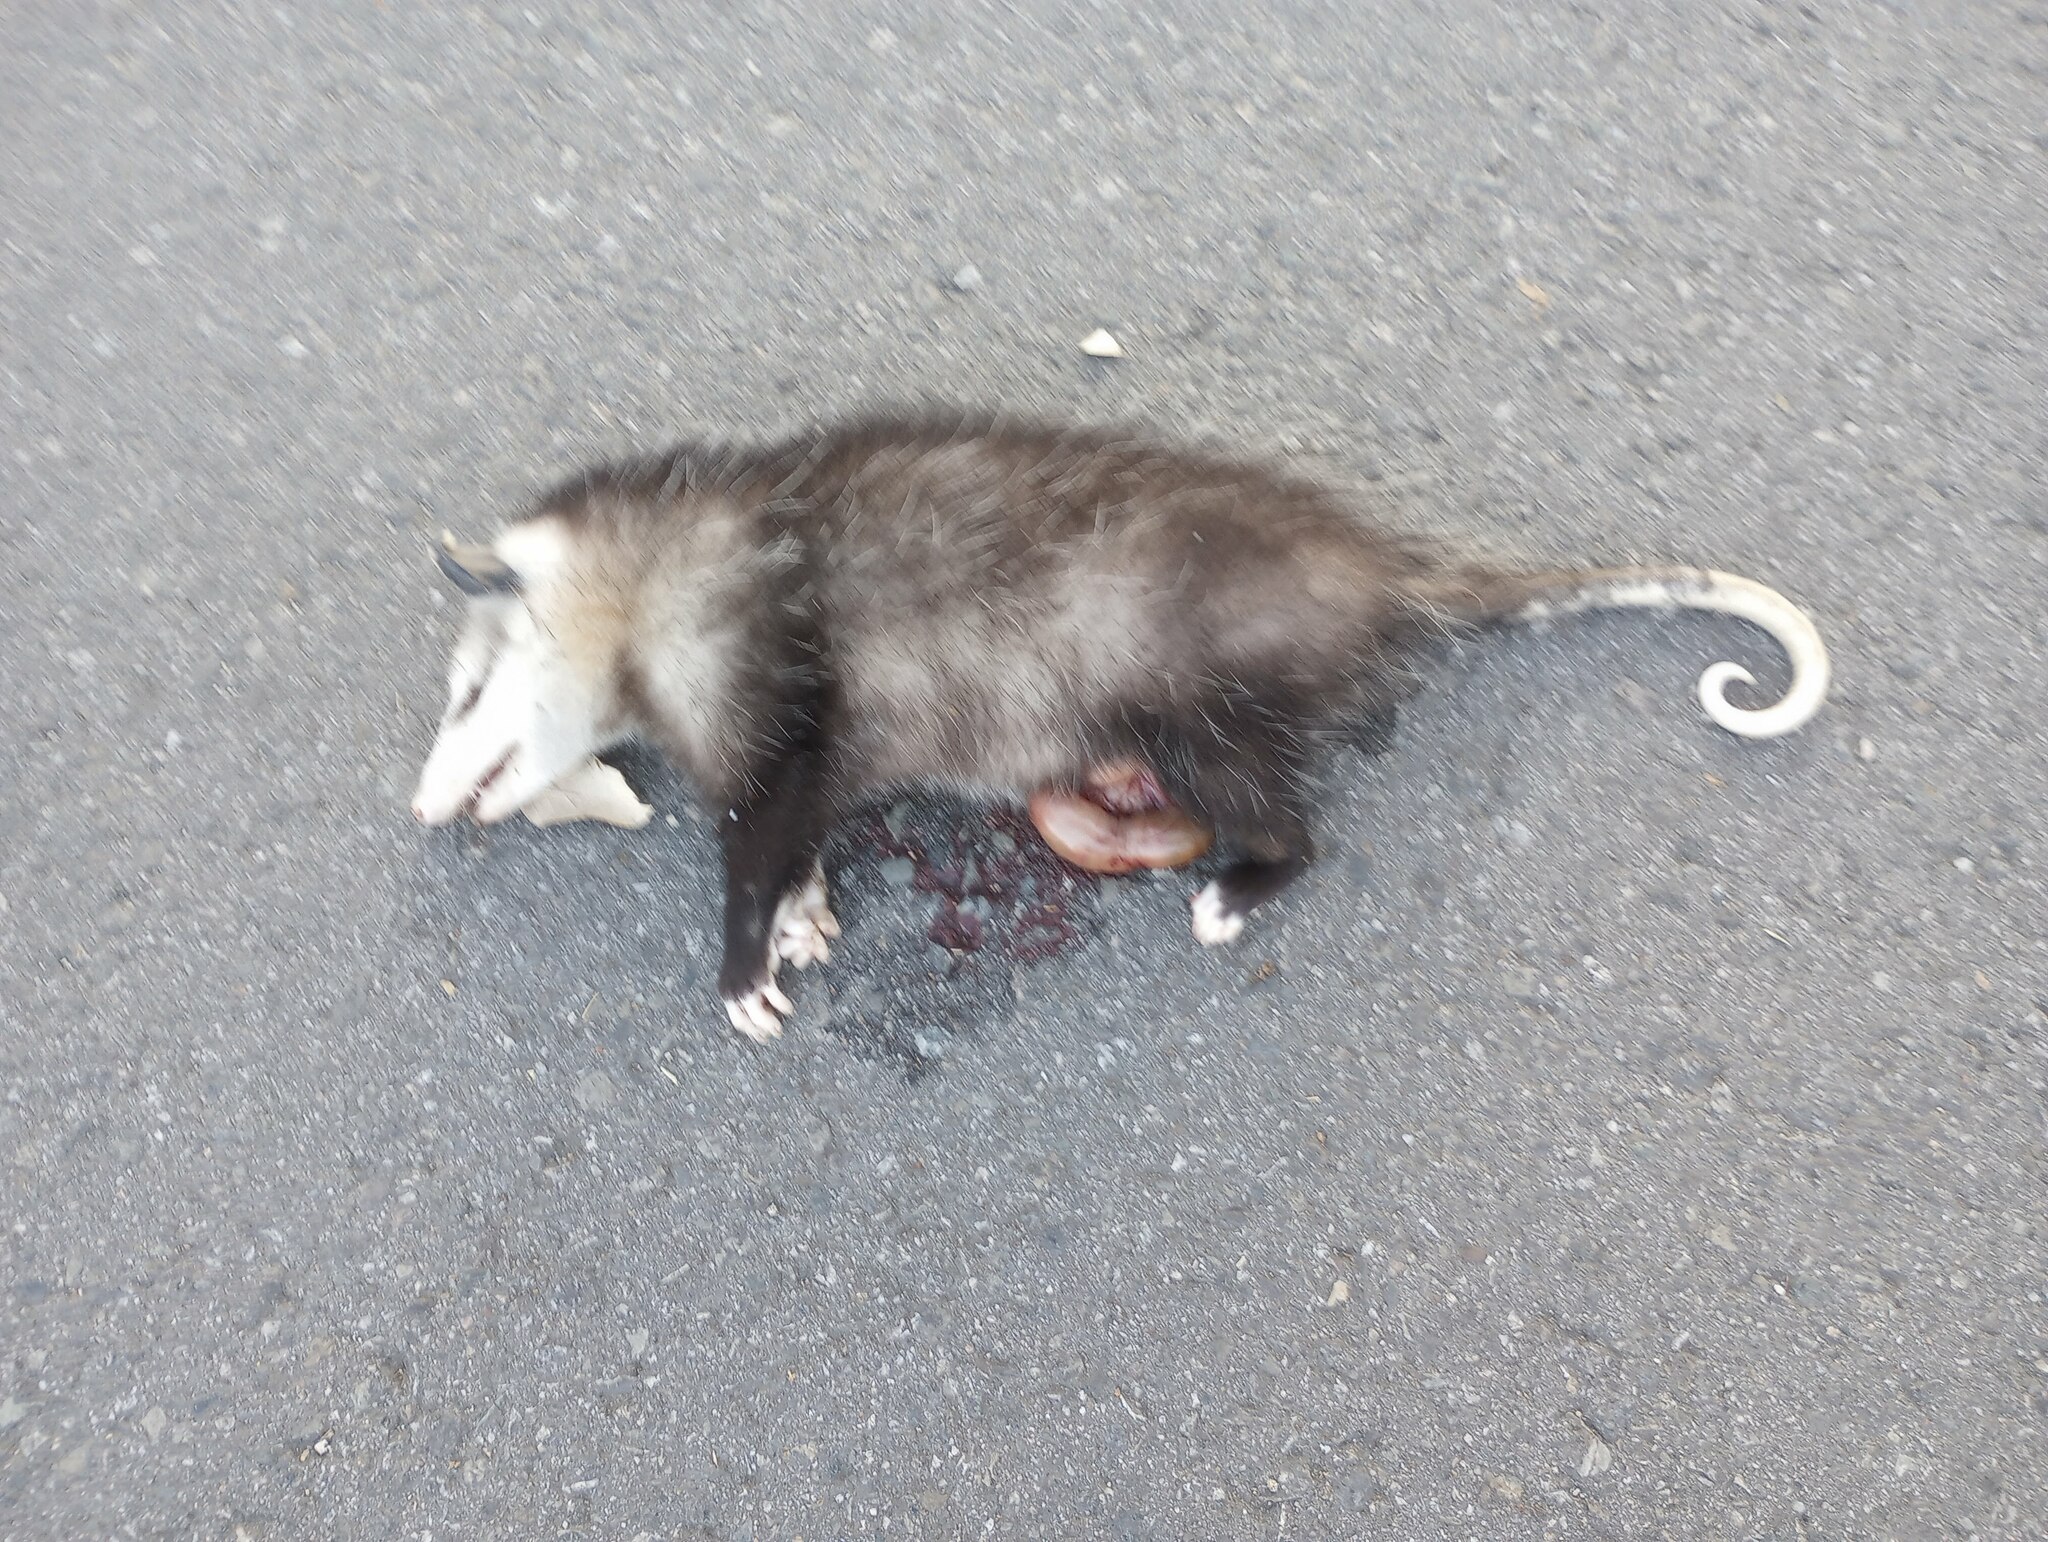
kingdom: Animalia
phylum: Chordata
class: Mammalia
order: Didelphimorphia
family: Didelphidae
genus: Didelphis
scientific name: Didelphis virginiana
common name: Virginia opossum
